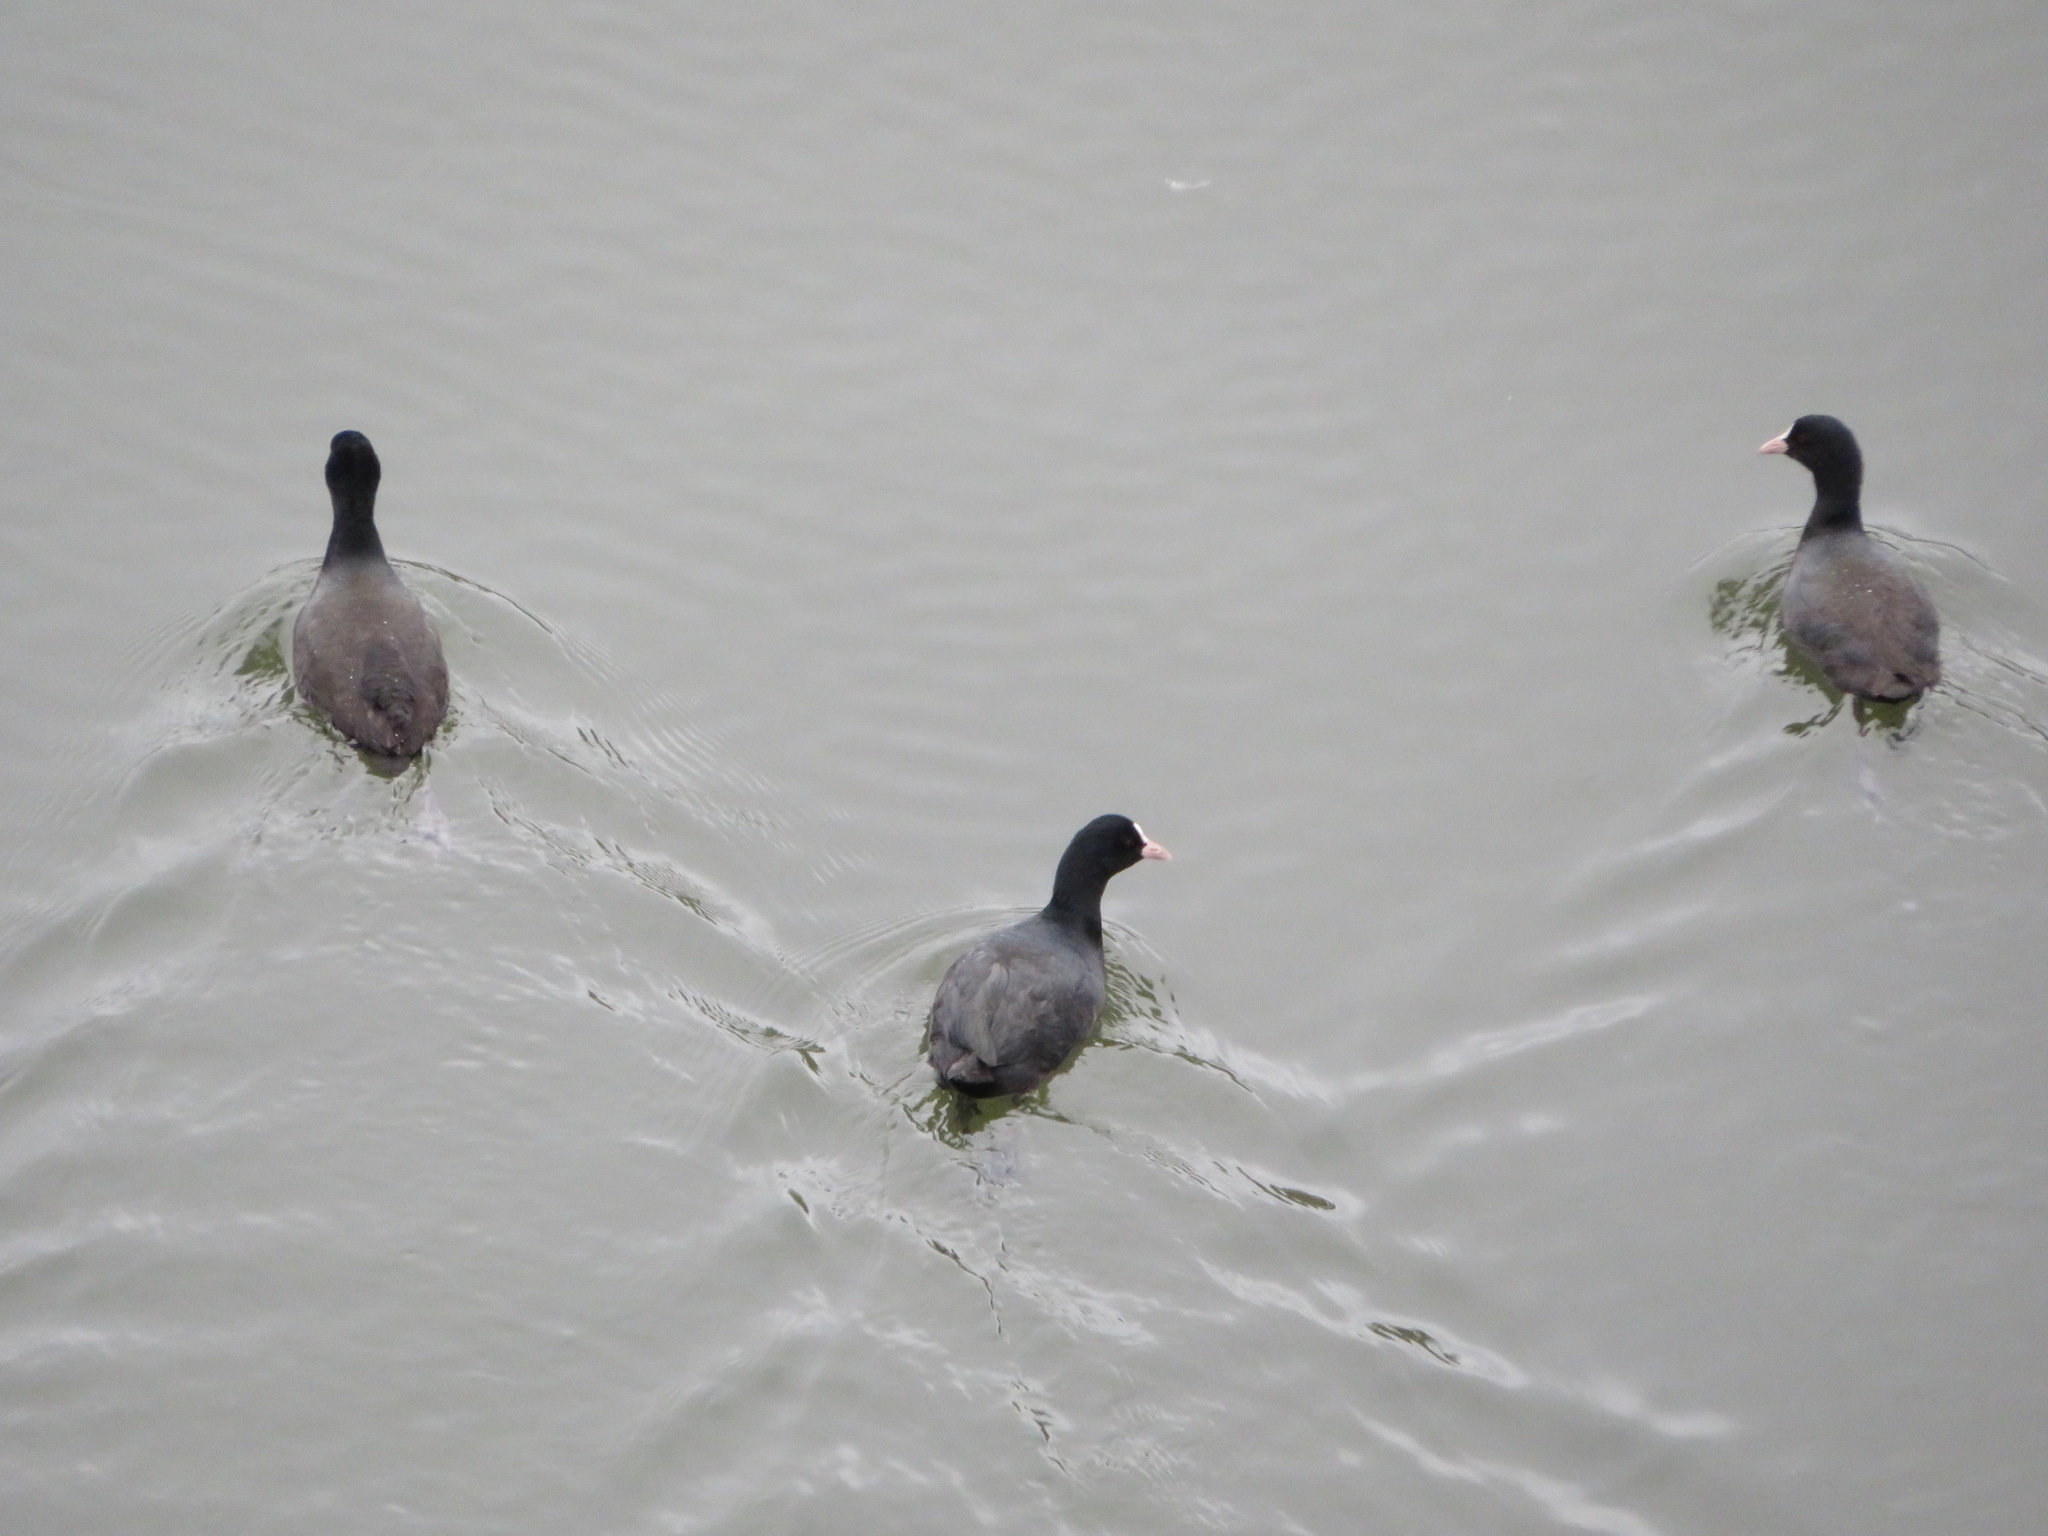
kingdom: Animalia
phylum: Chordata
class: Aves
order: Gruiformes
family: Rallidae
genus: Fulica
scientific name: Fulica atra
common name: Eurasian coot
